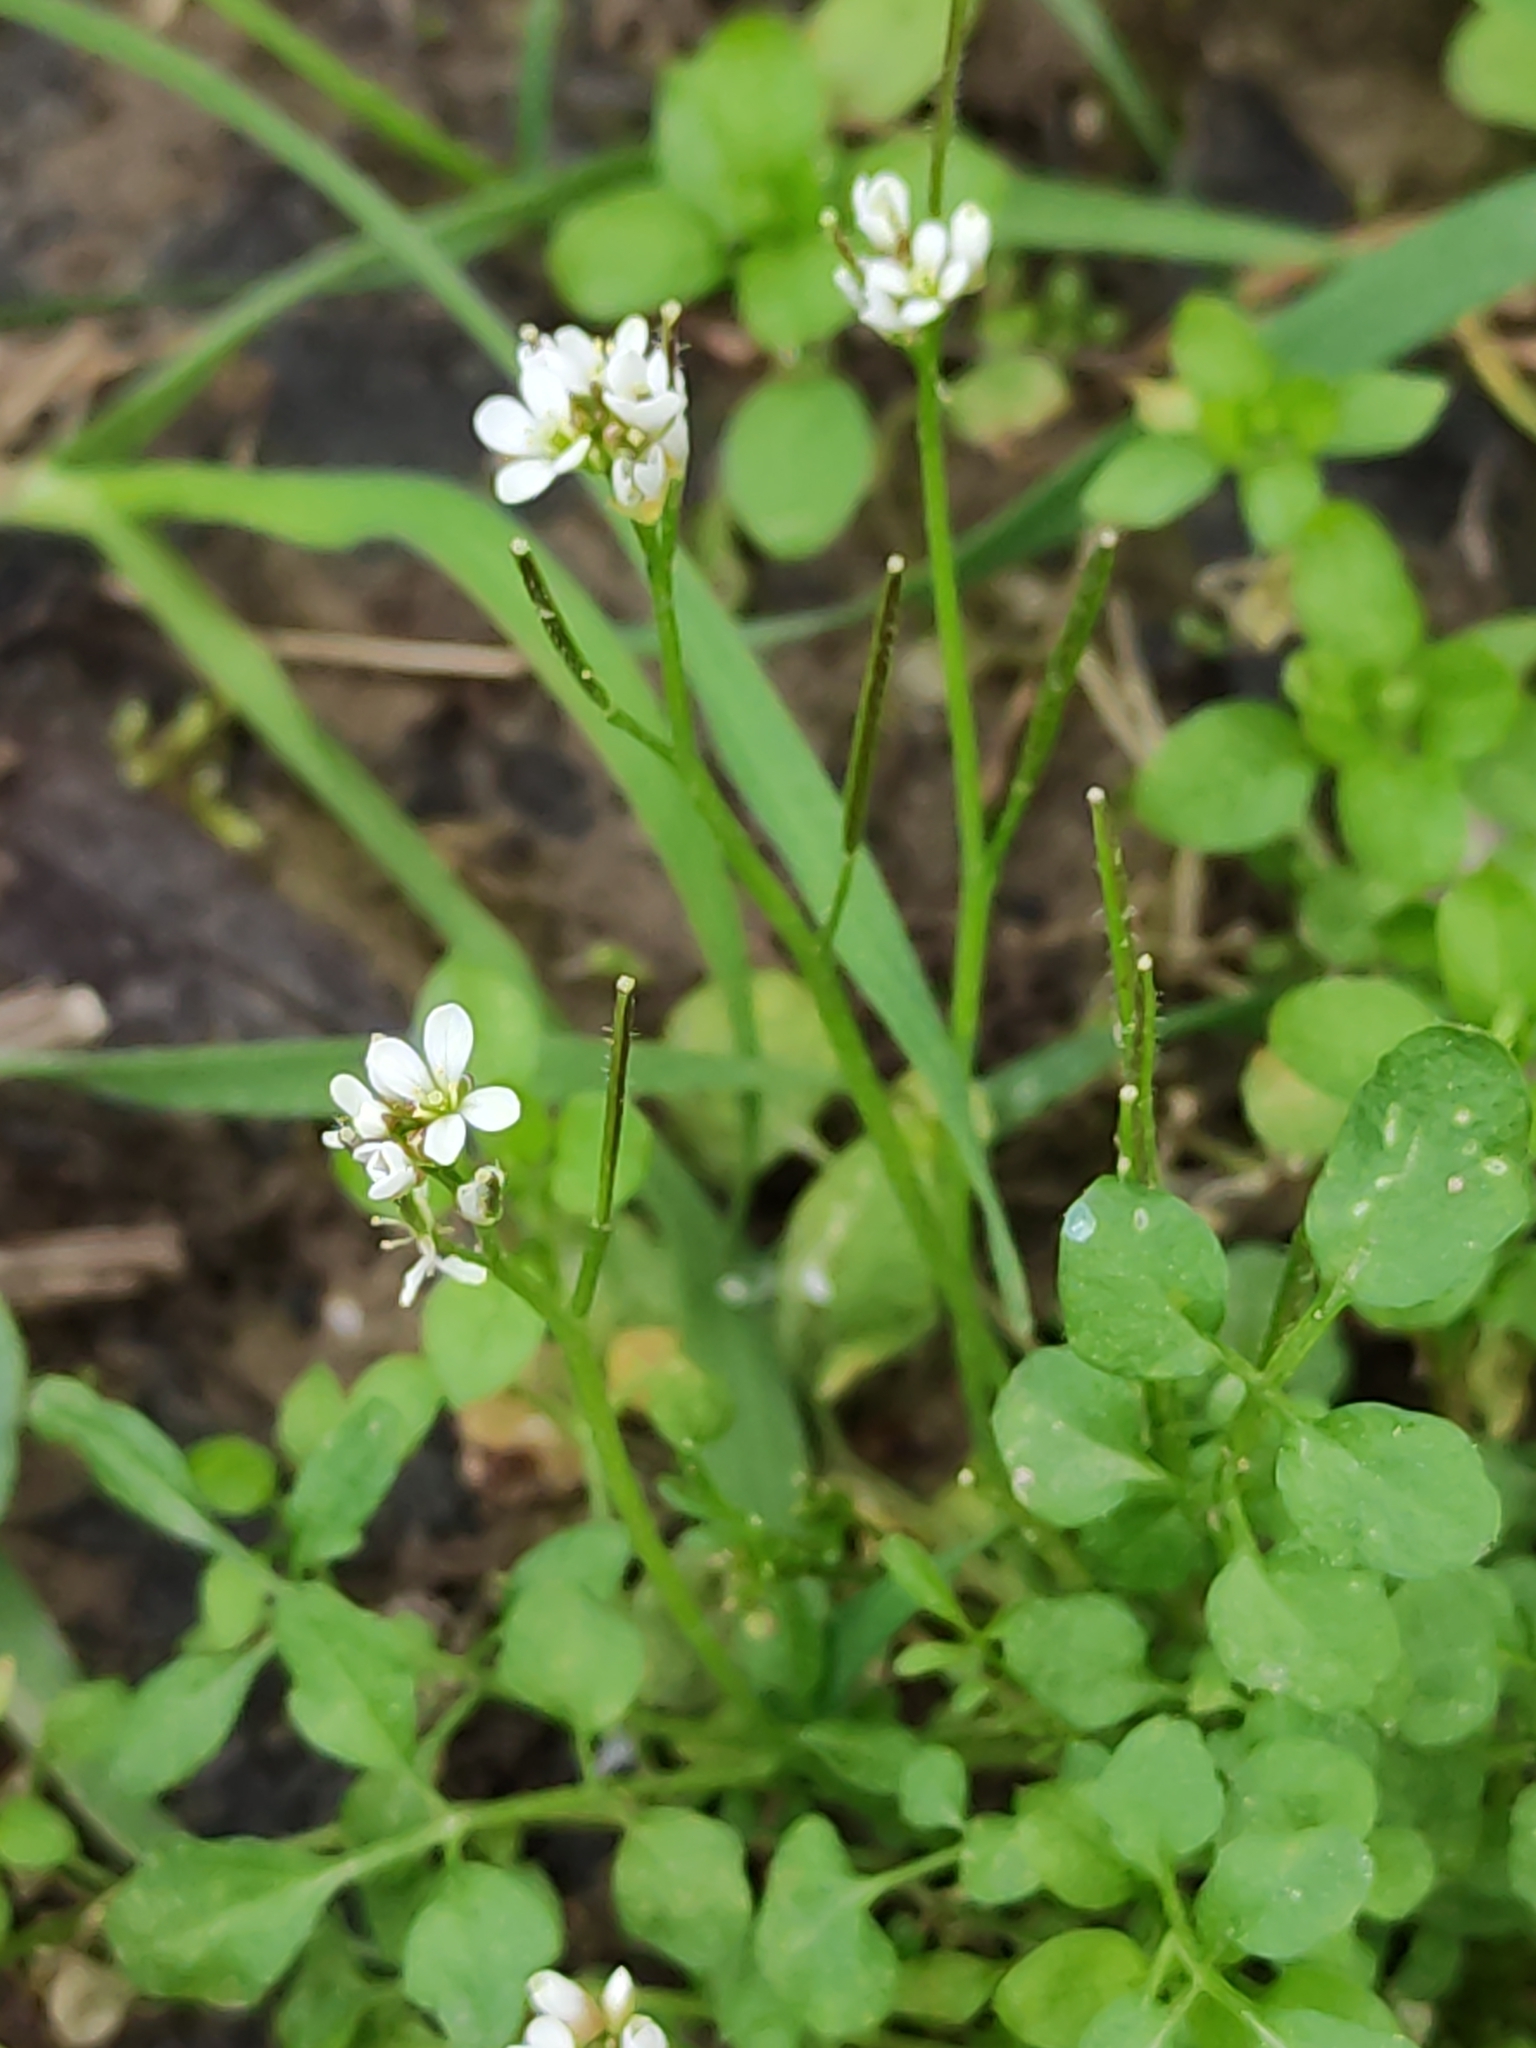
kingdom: Plantae
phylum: Tracheophyta
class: Magnoliopsida
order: Brassicales
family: Brassicaceae
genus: Cardamine
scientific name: Cardamine hirsuta
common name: Hairy bittercress
